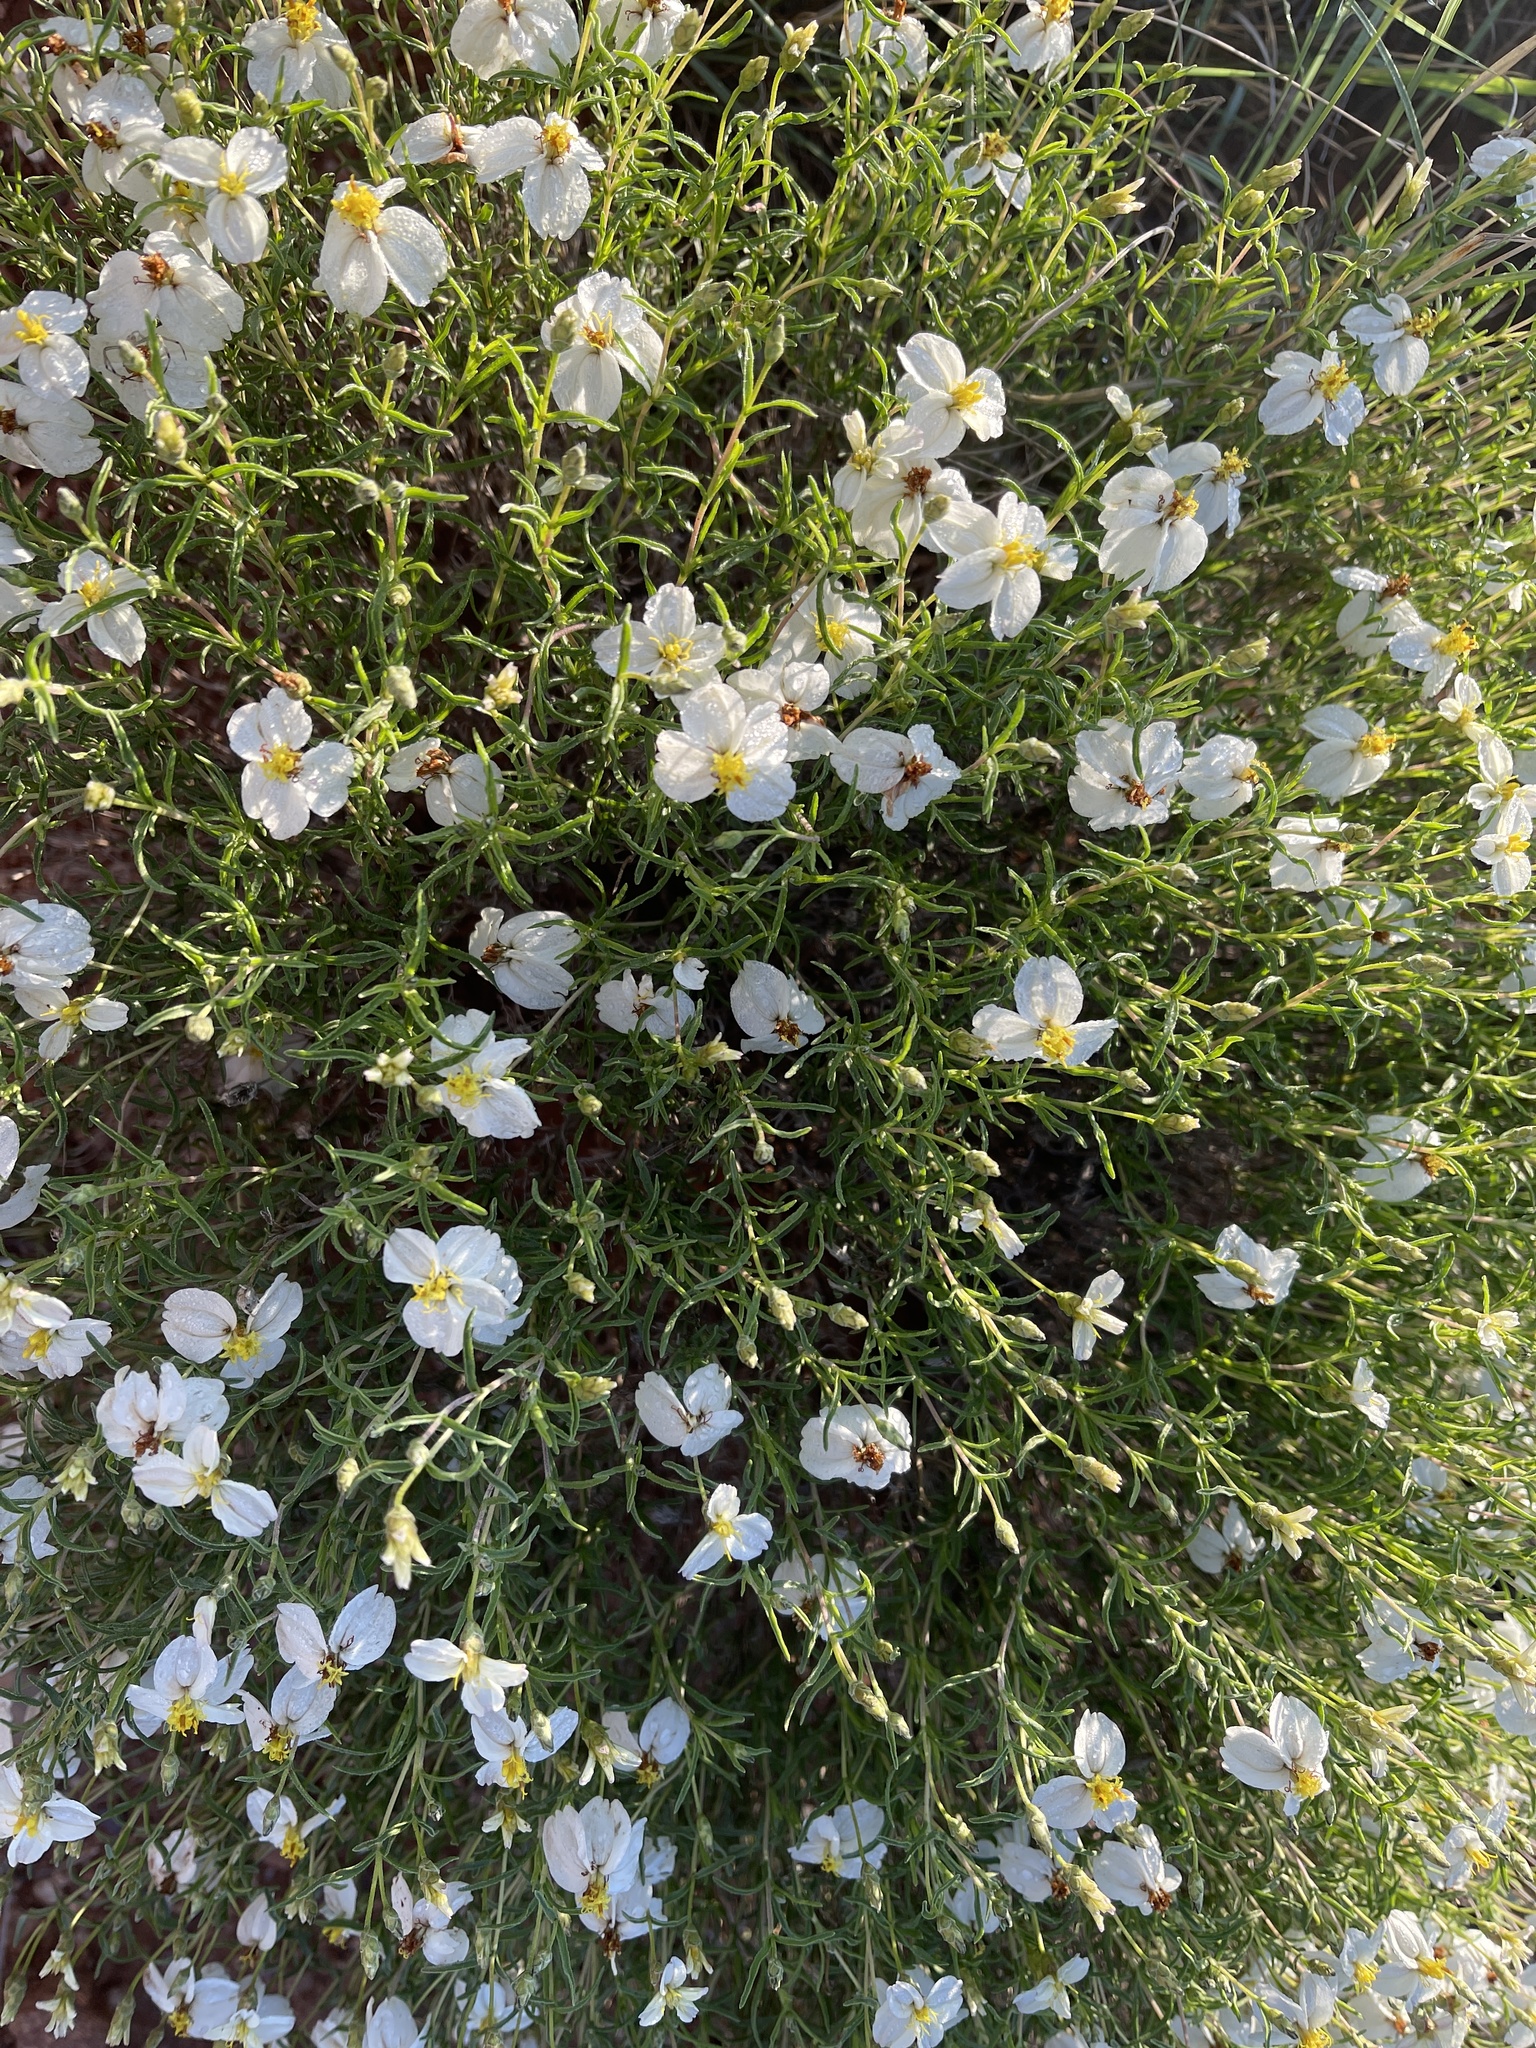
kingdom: Plantae
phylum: Tracheophyta
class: Magnoliopsida
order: Asterales
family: Asteraceae
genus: Zinnia
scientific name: Zinnia acerosa
